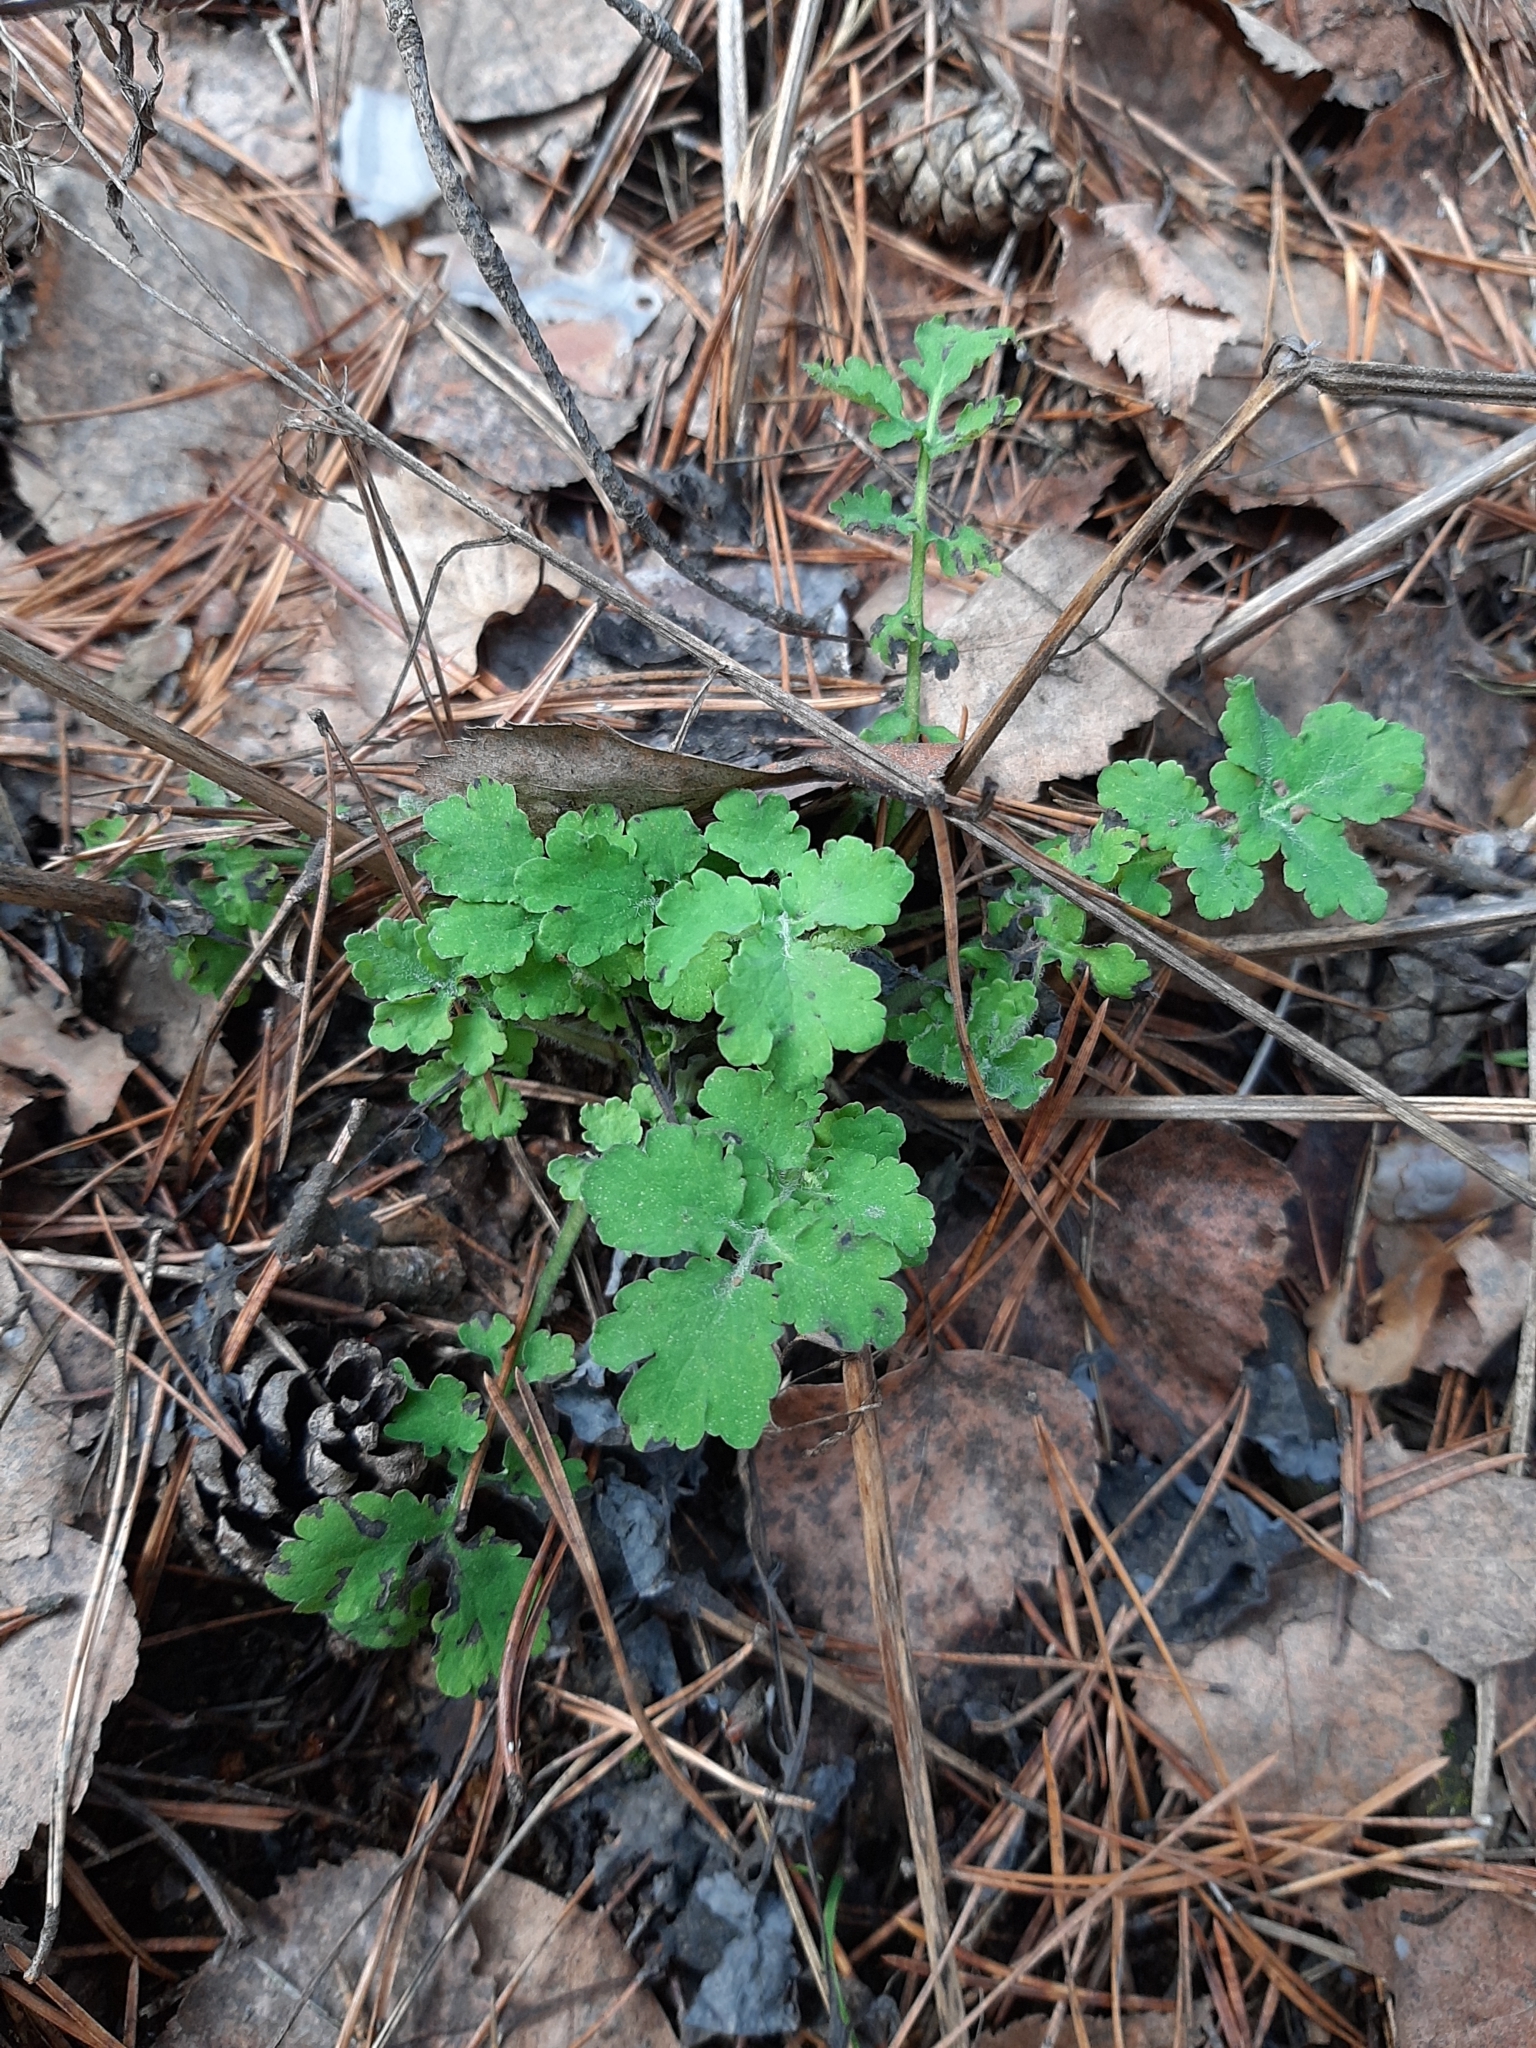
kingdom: Plantae
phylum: Tracheophyta
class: Magnoliopsida
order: Ranunculales
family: Papaveraceae
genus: Chelidonium
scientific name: Chelidonium majus
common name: Greater celandine
